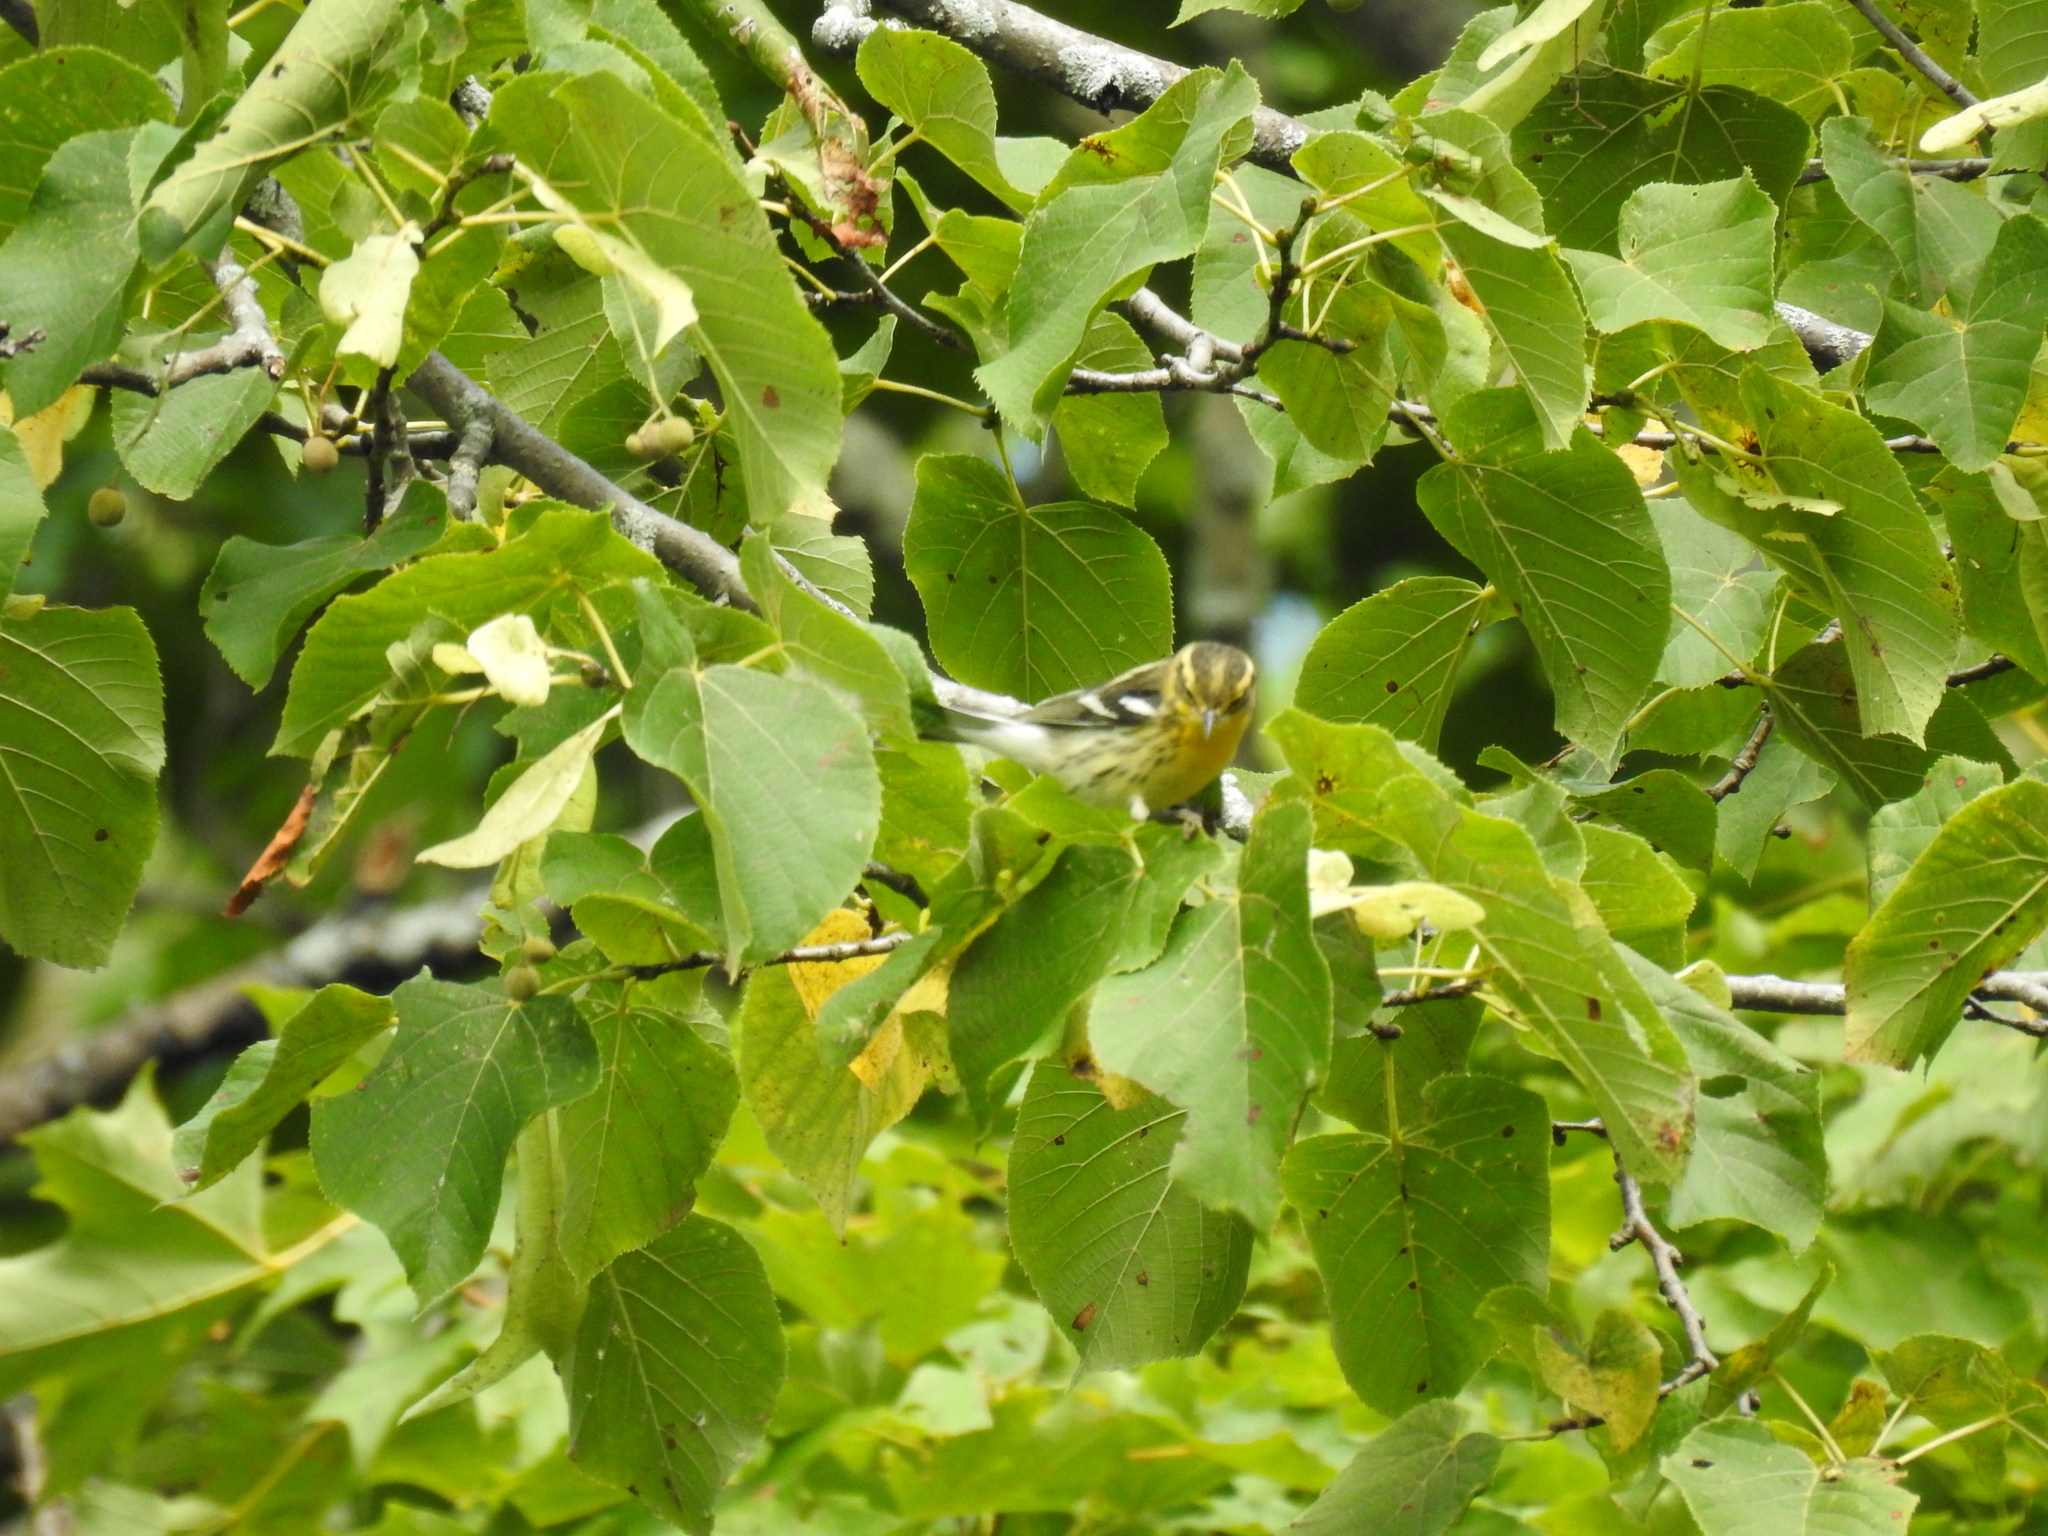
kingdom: Animalia
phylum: Chordata
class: Aves
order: Passeriformes
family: Parulidae
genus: Setophaga
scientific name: Setophaga fusca
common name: Blackburnian warbler
